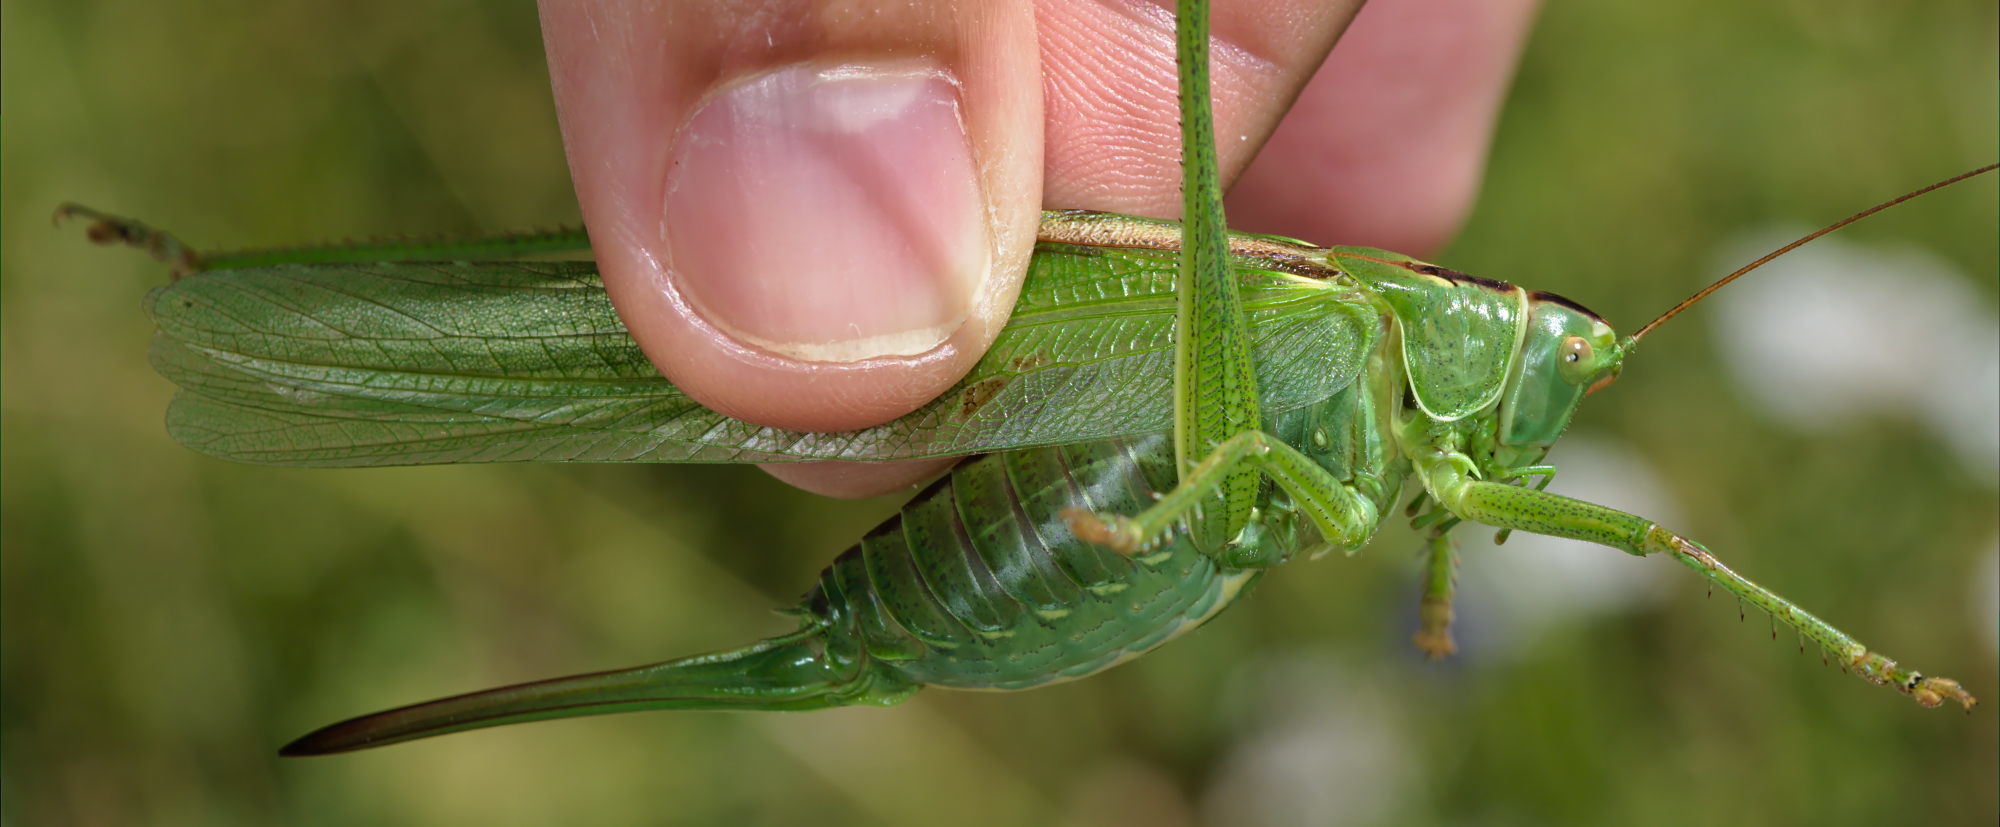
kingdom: Animalia
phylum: Arthropoda
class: Insecta
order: Orthoptera
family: Tettigoniidae
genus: Tettigonia
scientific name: Tettigonia viridissima
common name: Great green bush-cricket
